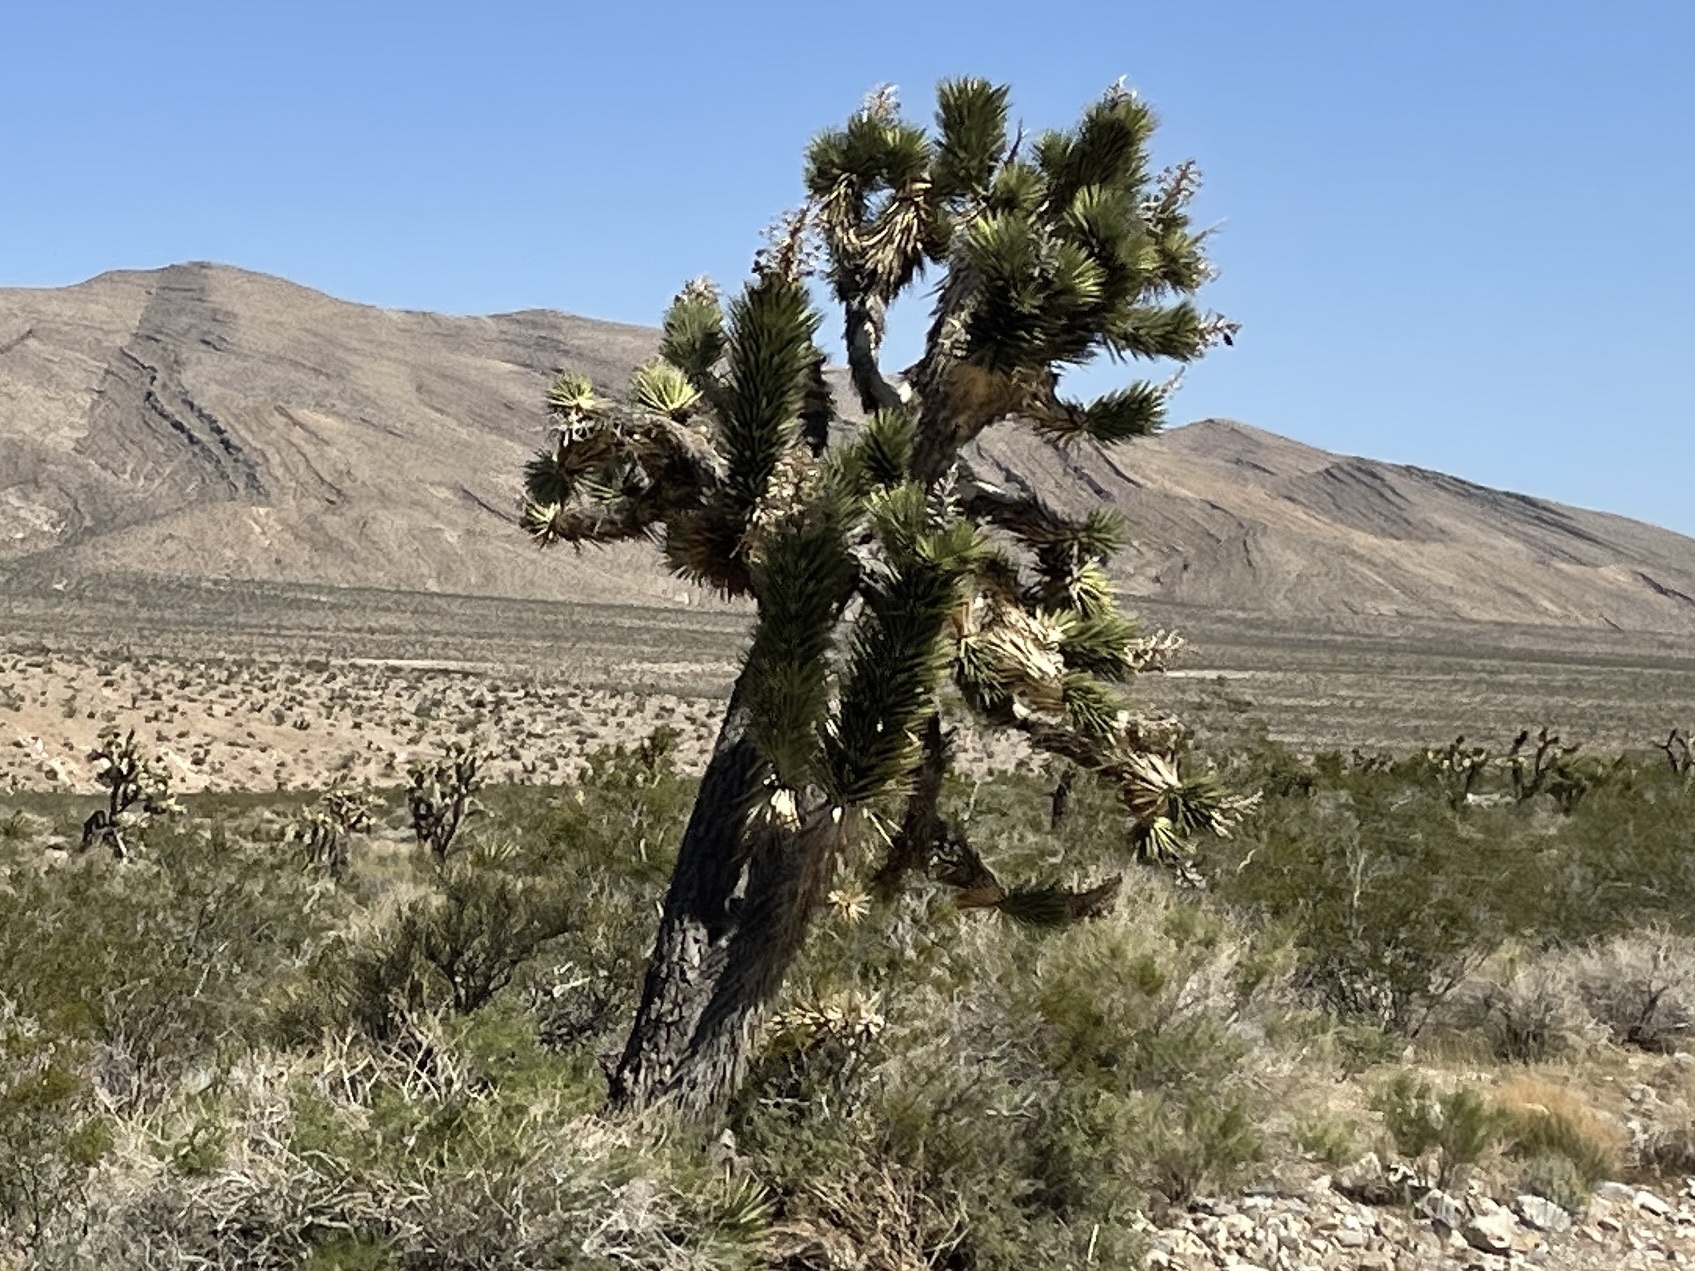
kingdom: Plantae
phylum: Tracheophyta
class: Liliopsida
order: Asparagales
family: Asparagaceae
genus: Yucca
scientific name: Yucca brevifolia
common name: Joshua tree
